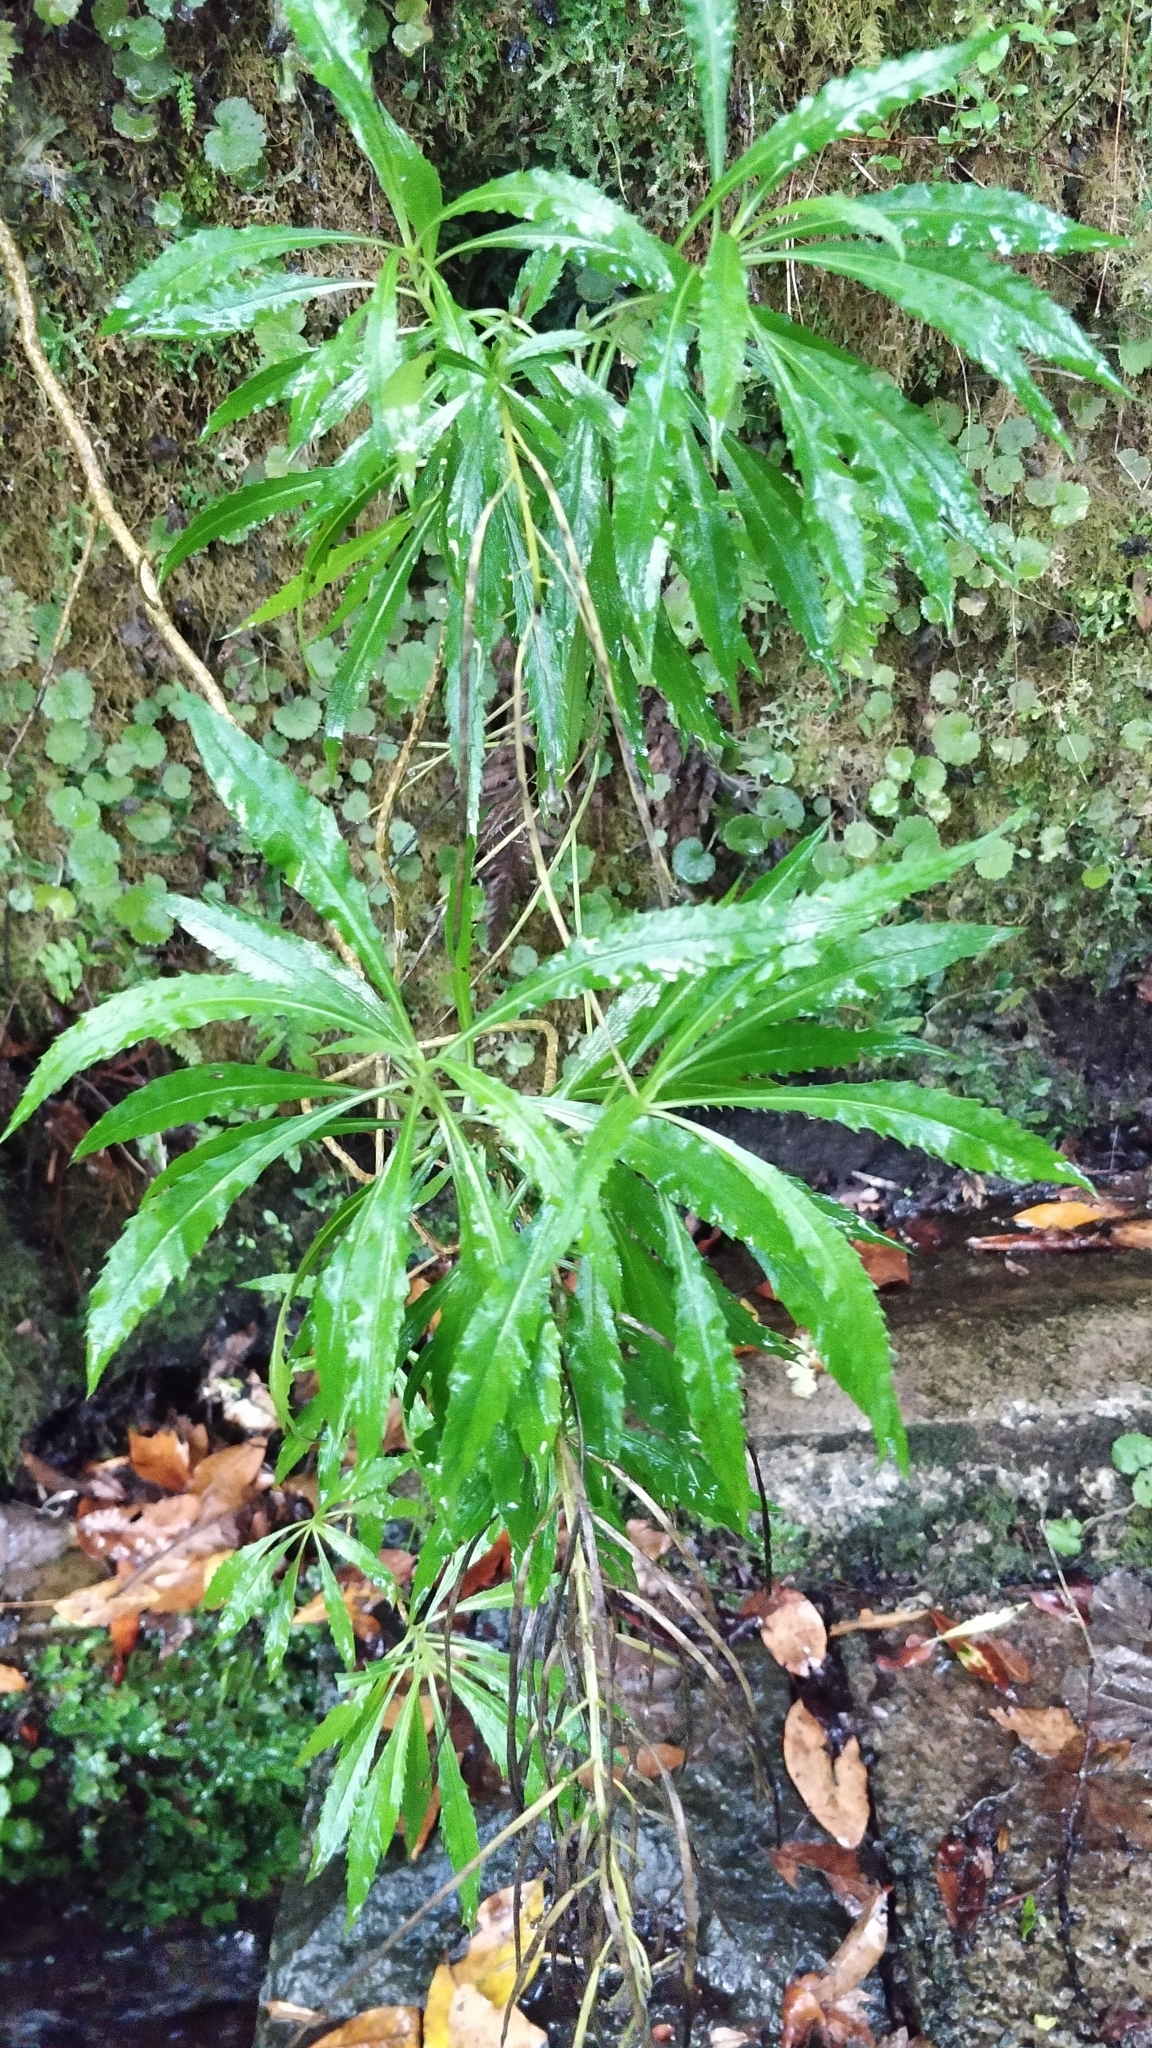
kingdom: Plantae
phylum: Tracheophyta
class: Magnoliopsida
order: Brassicales
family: Brassicaceae
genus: Erysimum
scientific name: Erysimum bicolor
